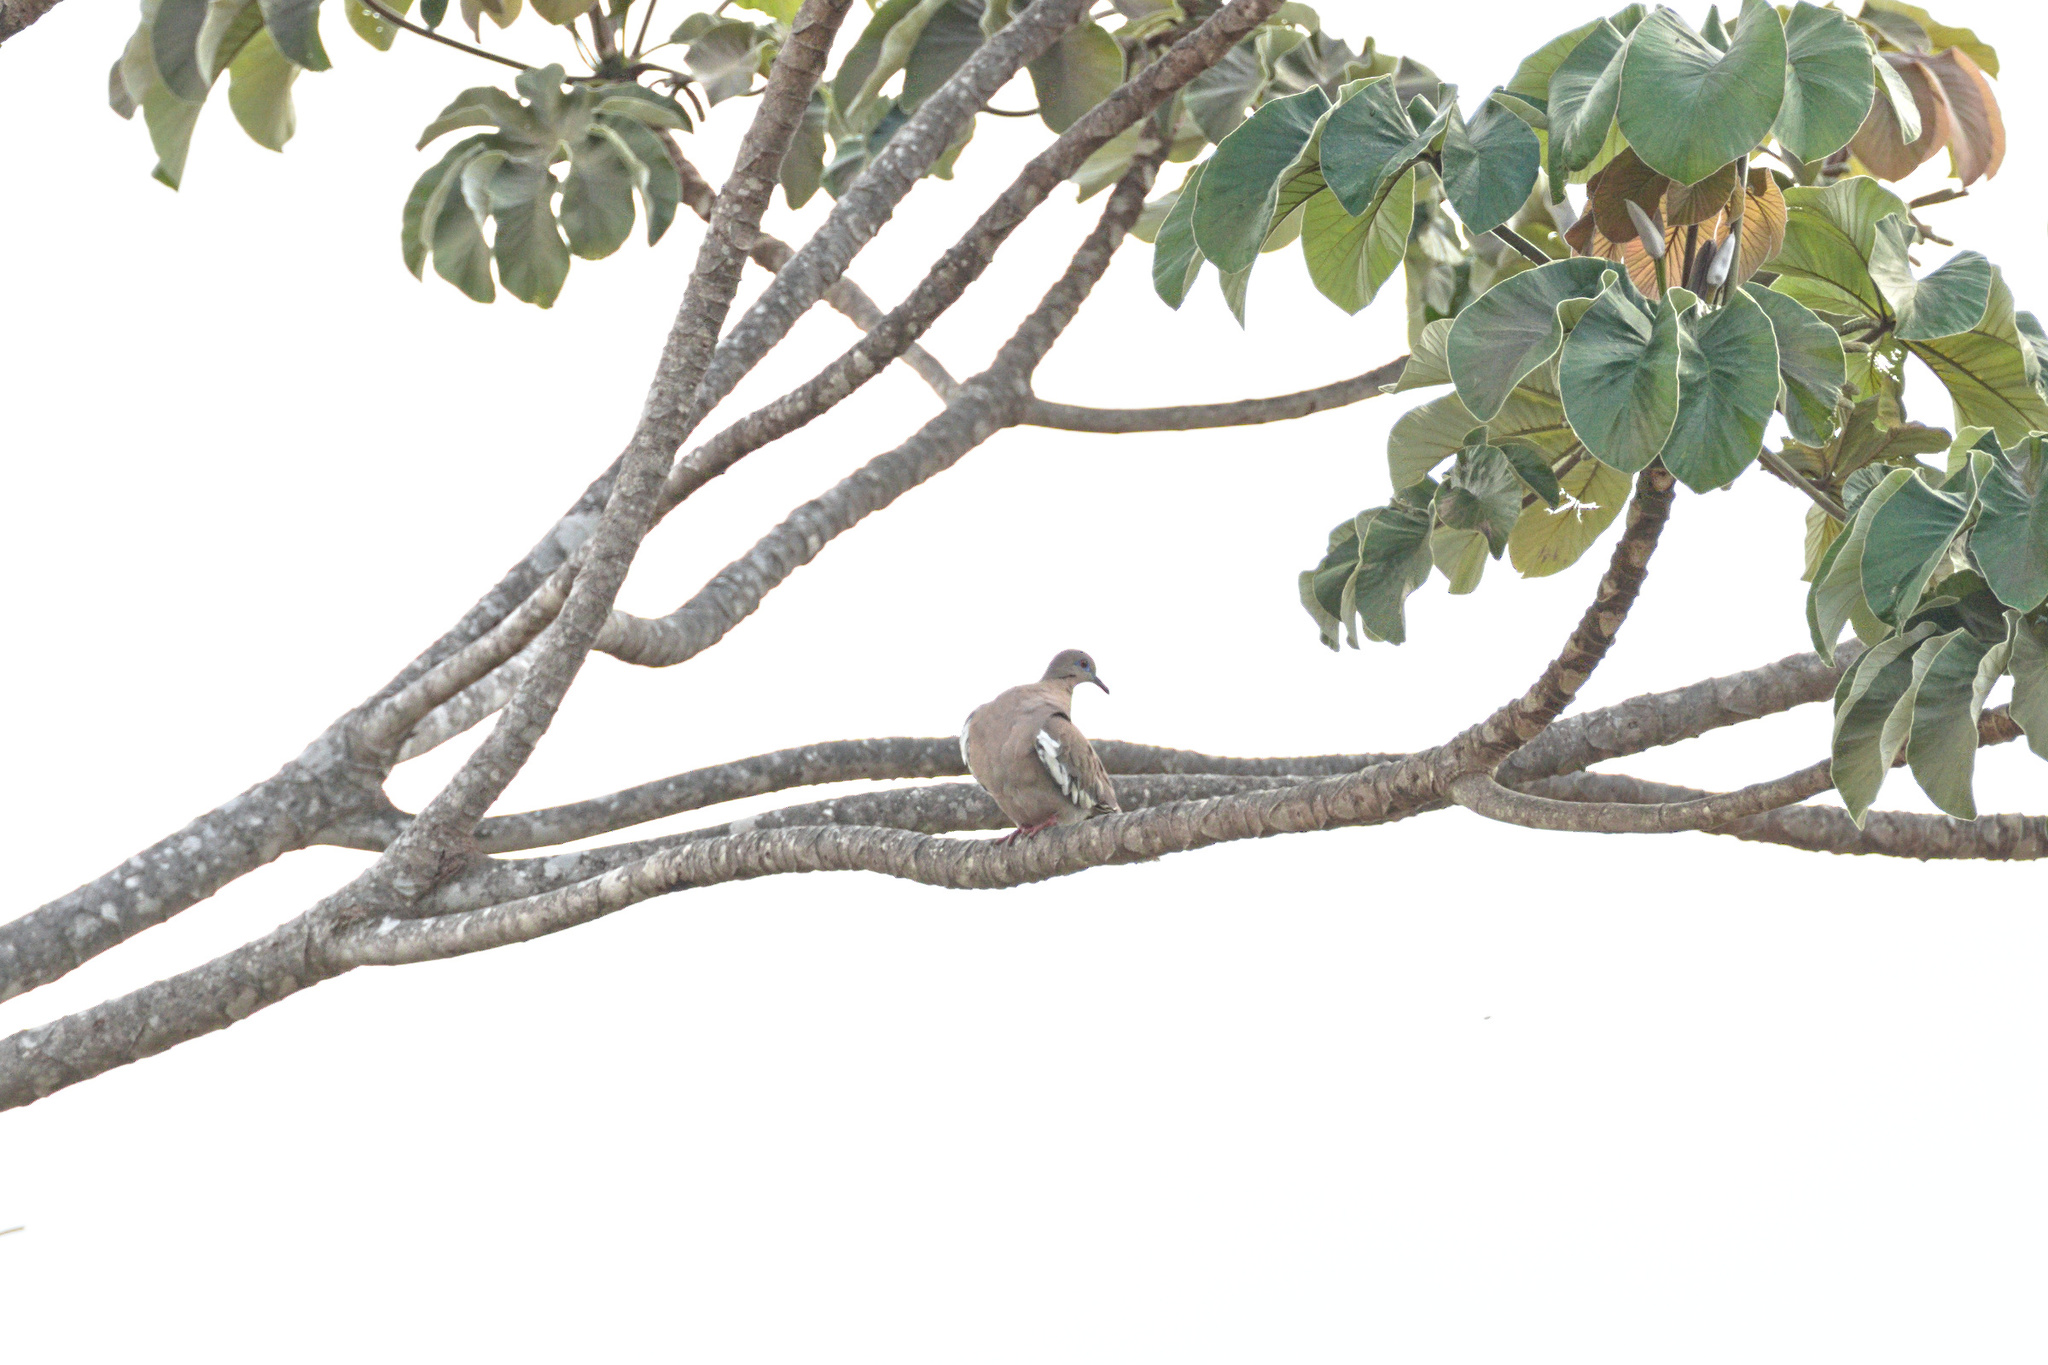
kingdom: Animalia
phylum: Chordata
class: Aves
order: Columbiformes
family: Columbidae
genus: Zenaida
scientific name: Zenaida asiatica
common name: White-winged dove
